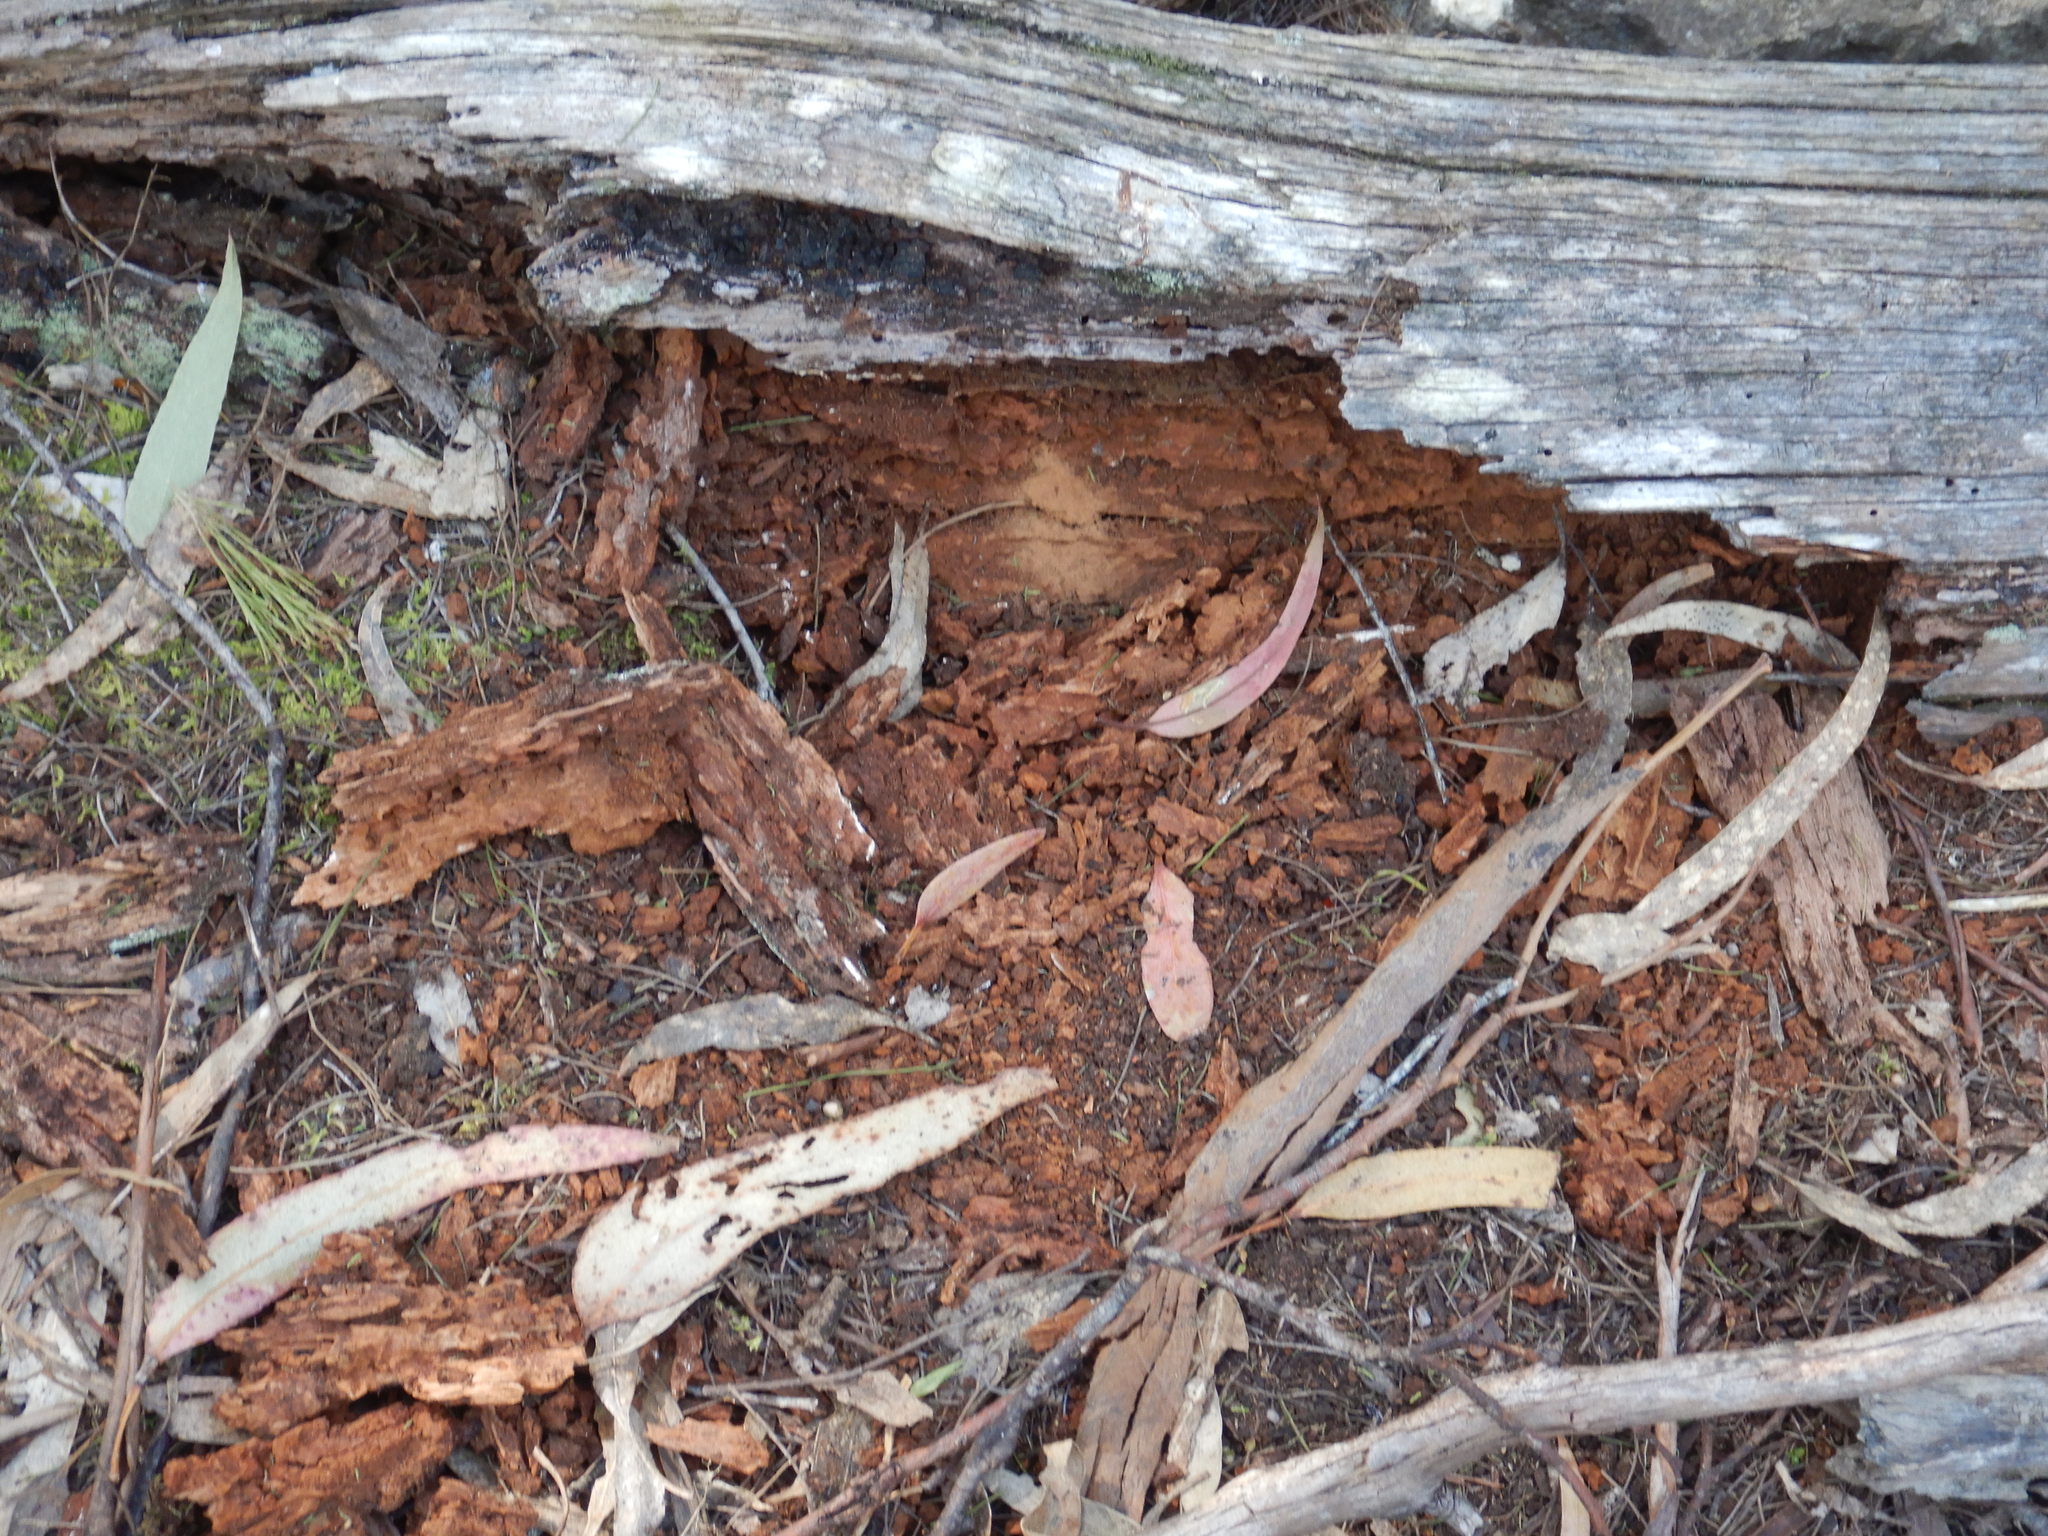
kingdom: Animalia
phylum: Chordata
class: Mammalia
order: Monotremata
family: Tachyglossidae
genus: Tachyglossus
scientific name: Tachyglossus aculeatus
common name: Short-beaked echidna
